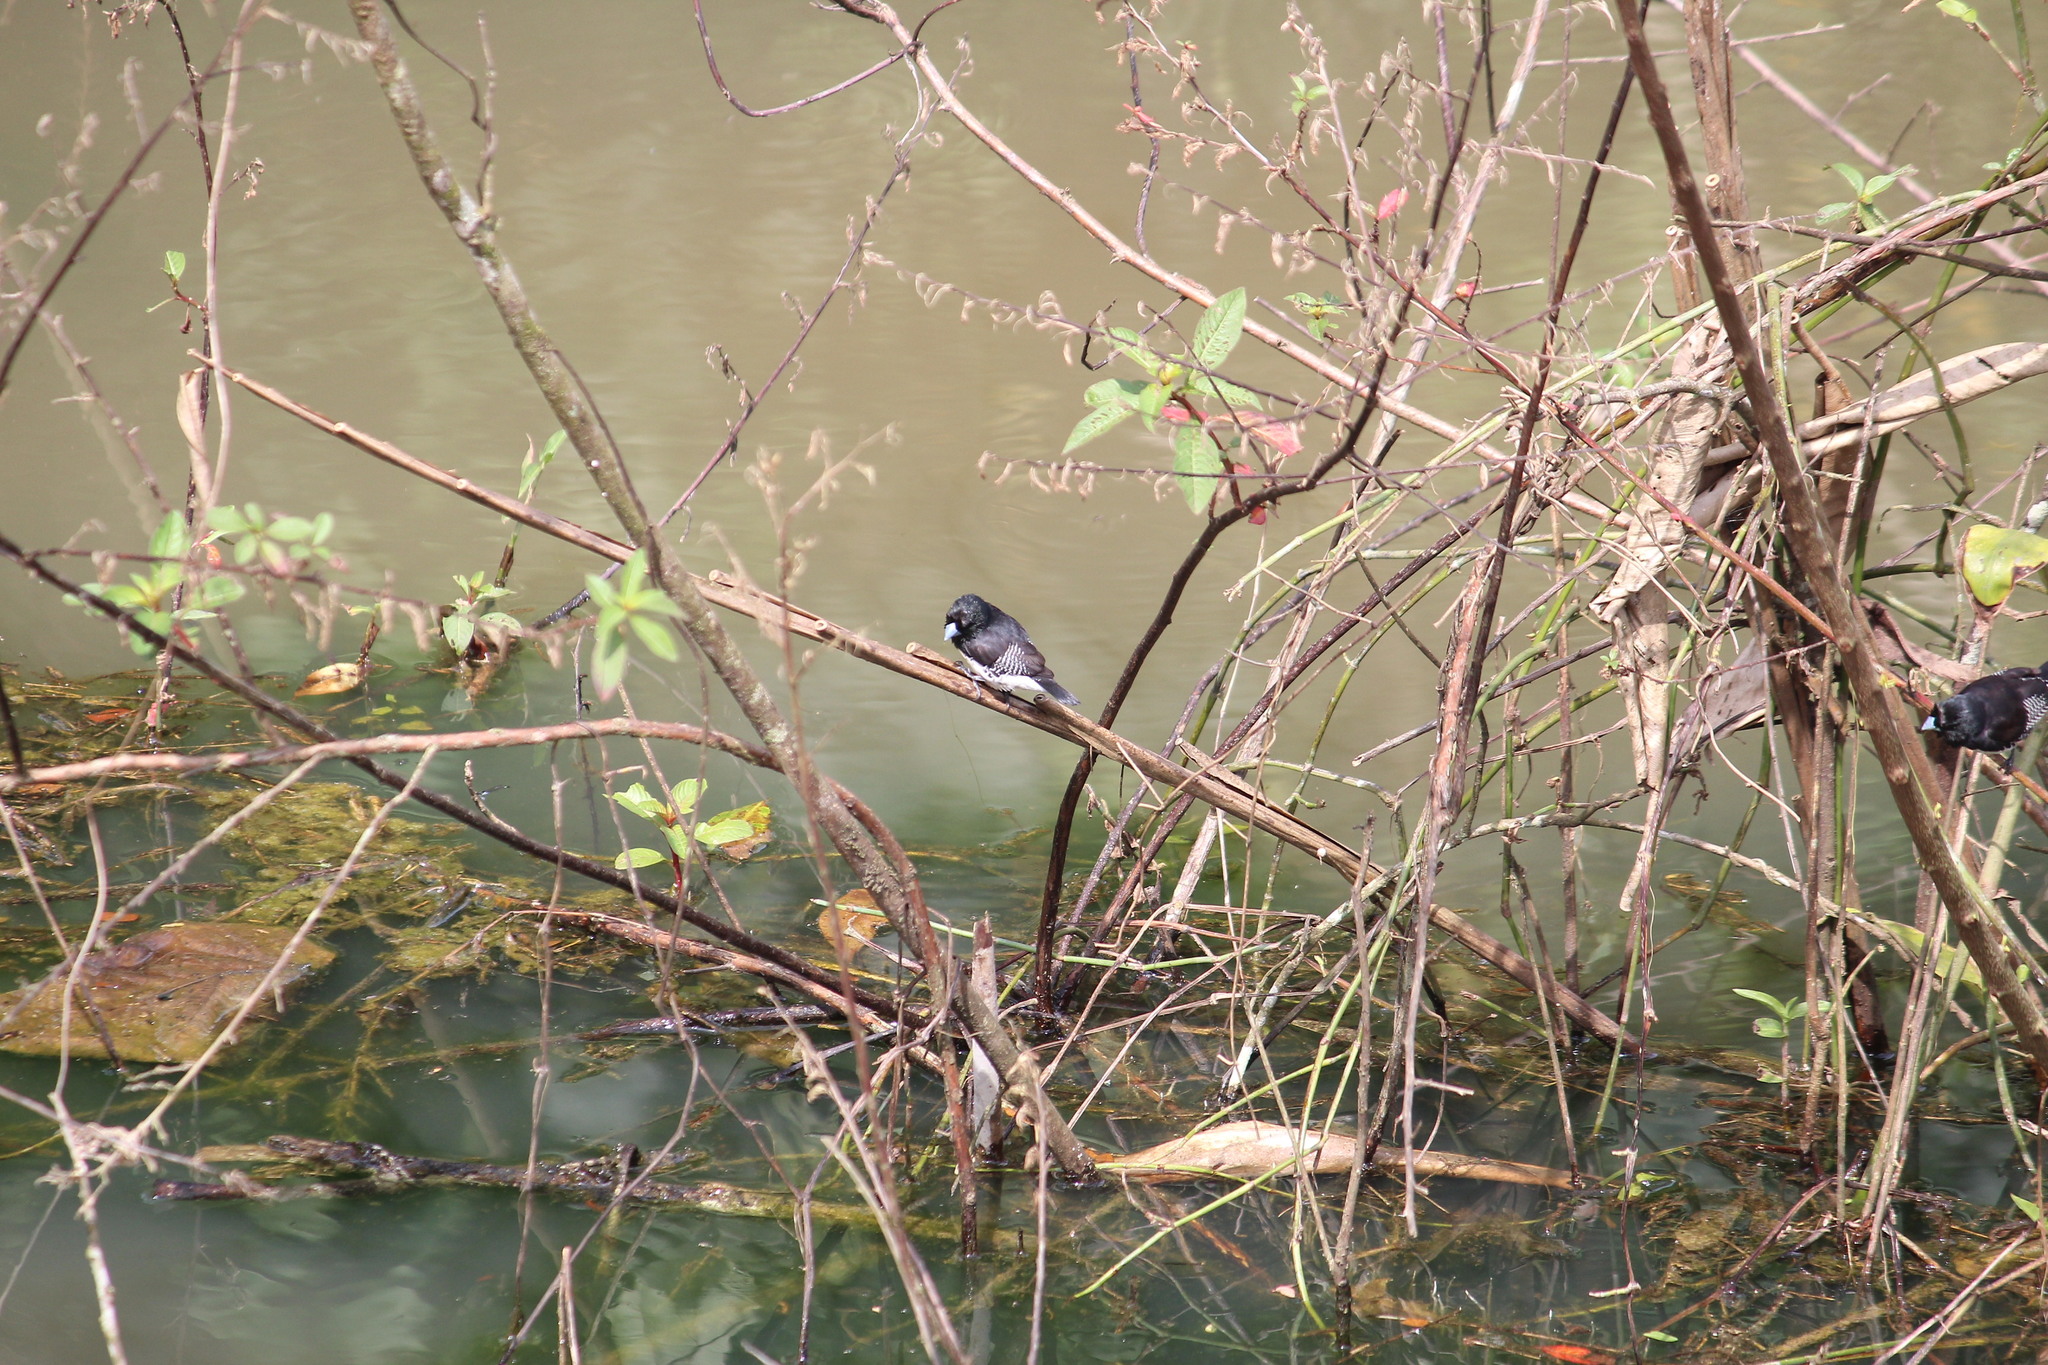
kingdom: Animalia
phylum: Chordata
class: Aves
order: Passeriformes
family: Estrildidae
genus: Lonchura
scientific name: Lonchura bicolor
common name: Black-and-white mannikin
